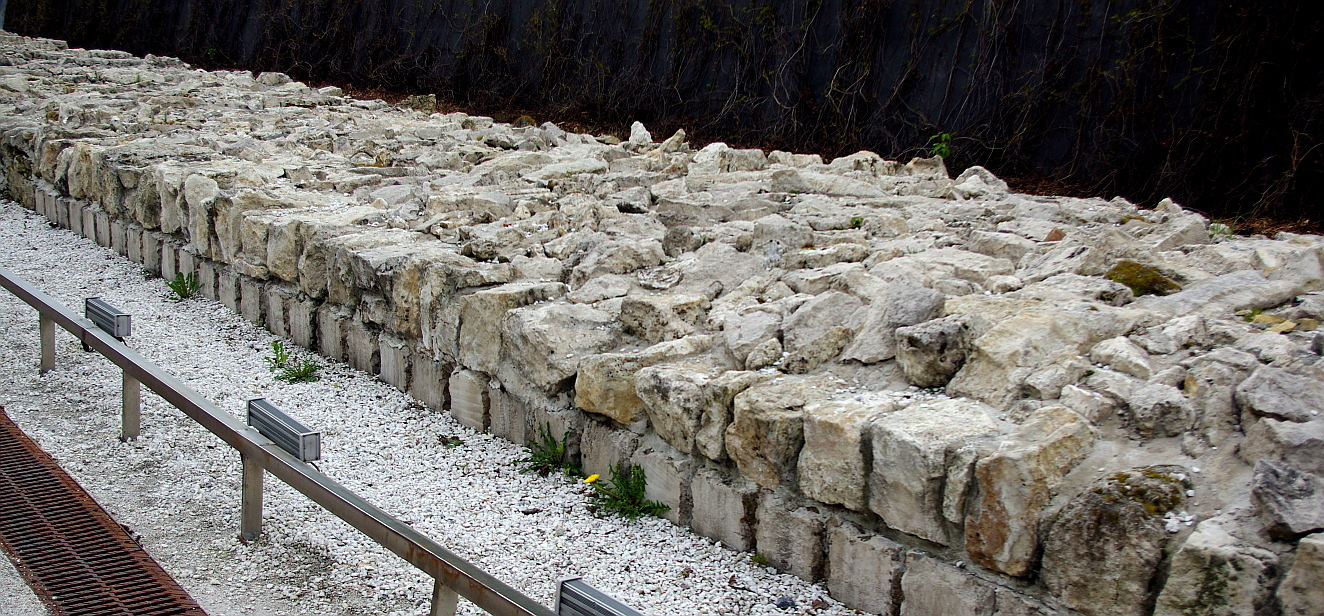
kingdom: Plantae
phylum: Tracheophyta
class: Magnoliopsida
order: Asterales
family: Asteraceae
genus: Taraxacum
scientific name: Taraxacum officinale
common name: Common dandelion
